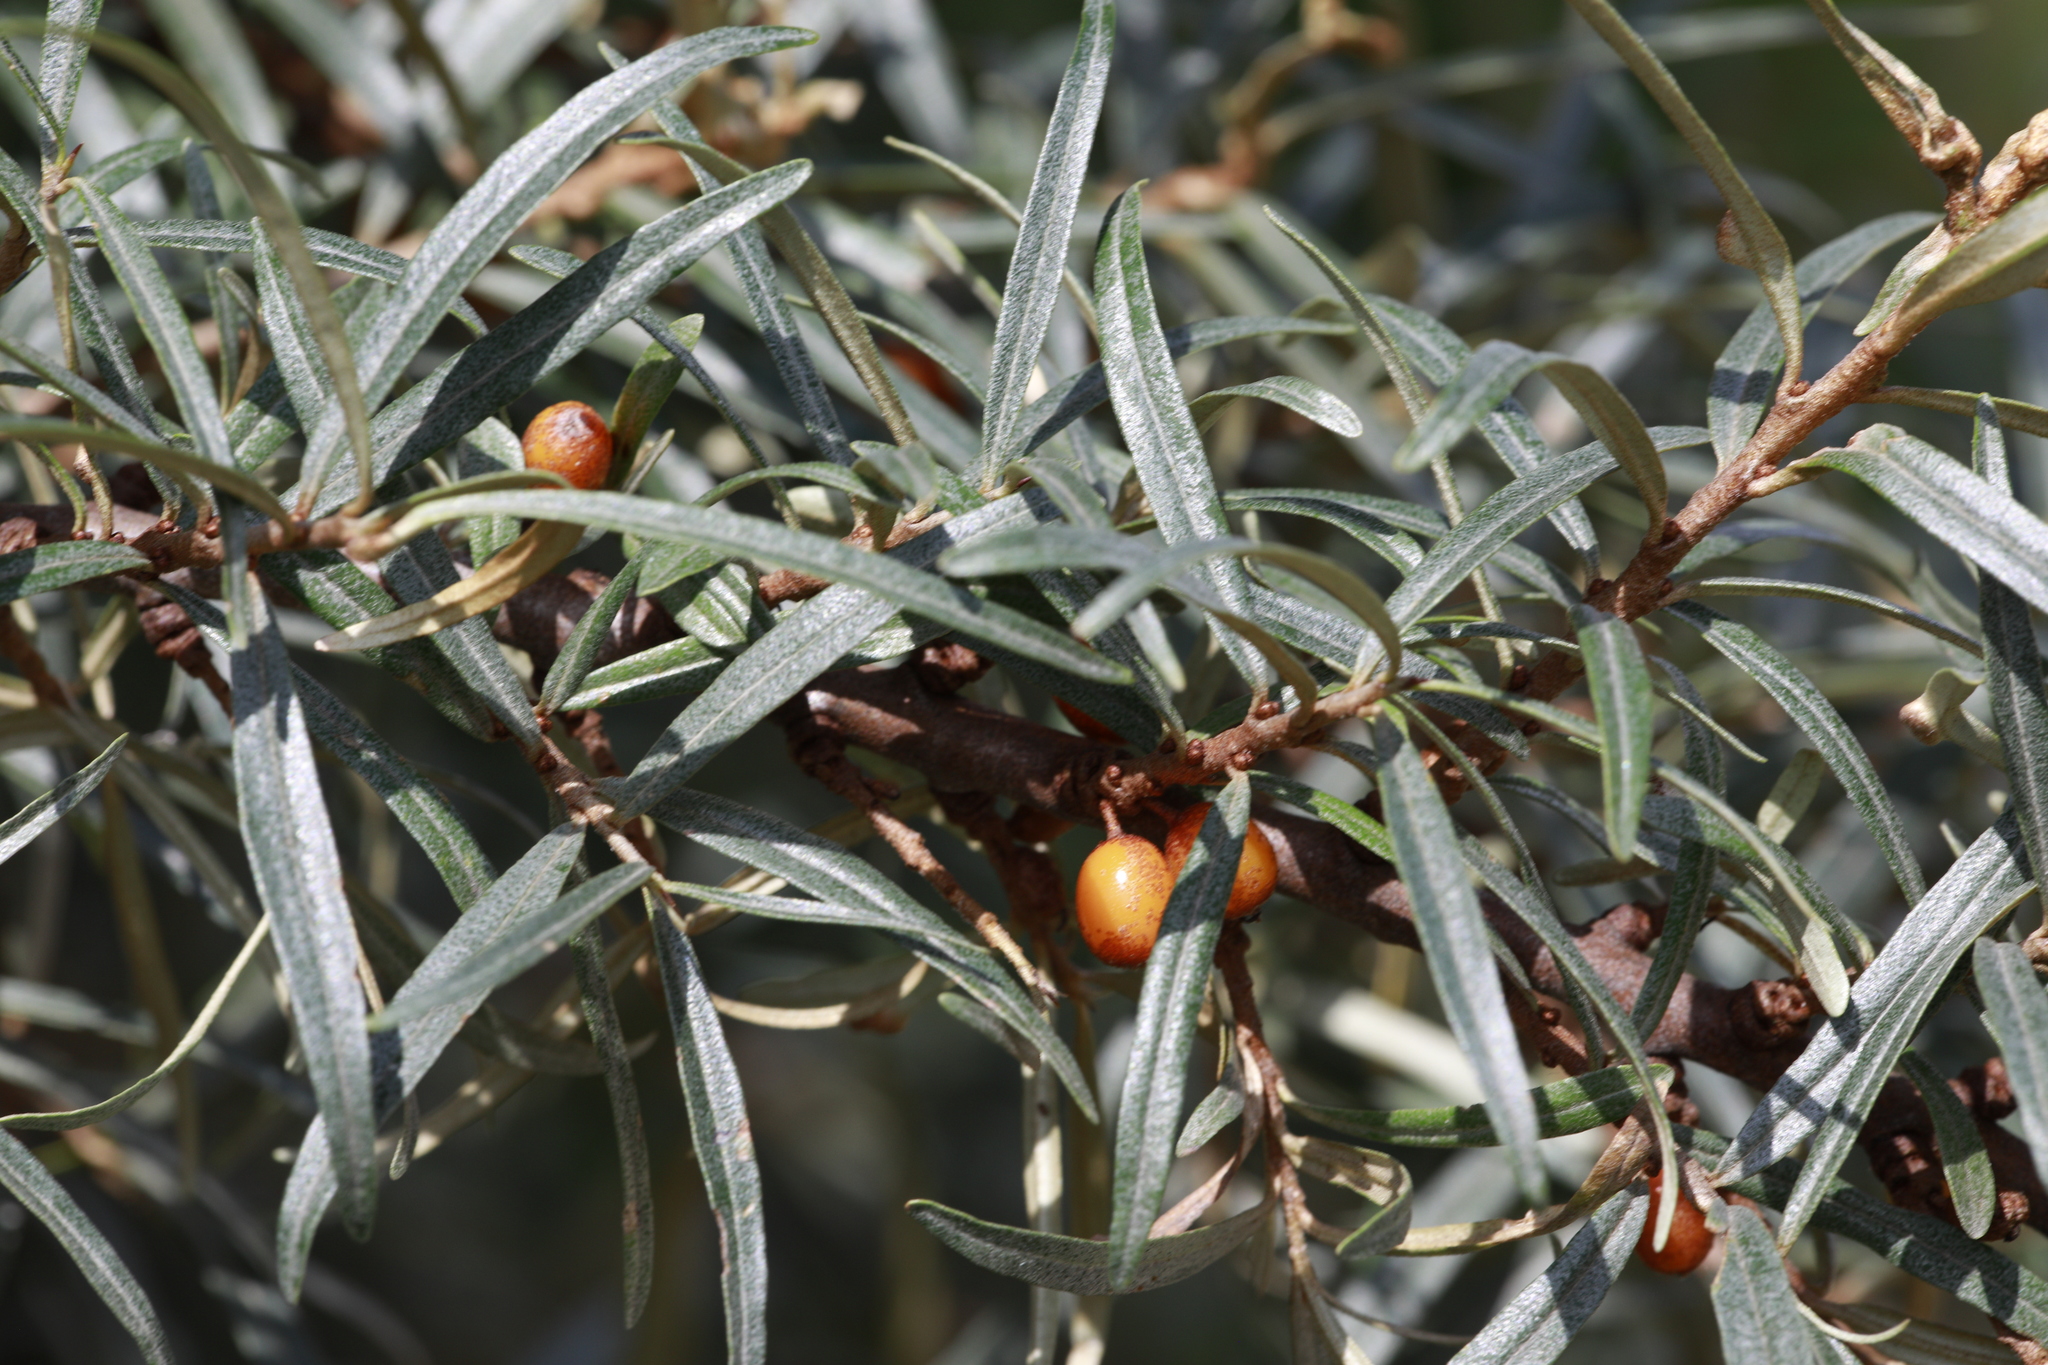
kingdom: Plantae
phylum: Tracheophyta
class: Magnoliopsida
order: Rosales
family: Elaeagnaceae
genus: Hippophae
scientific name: Hippophae rhamnoides
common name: Sea-buckthorn
